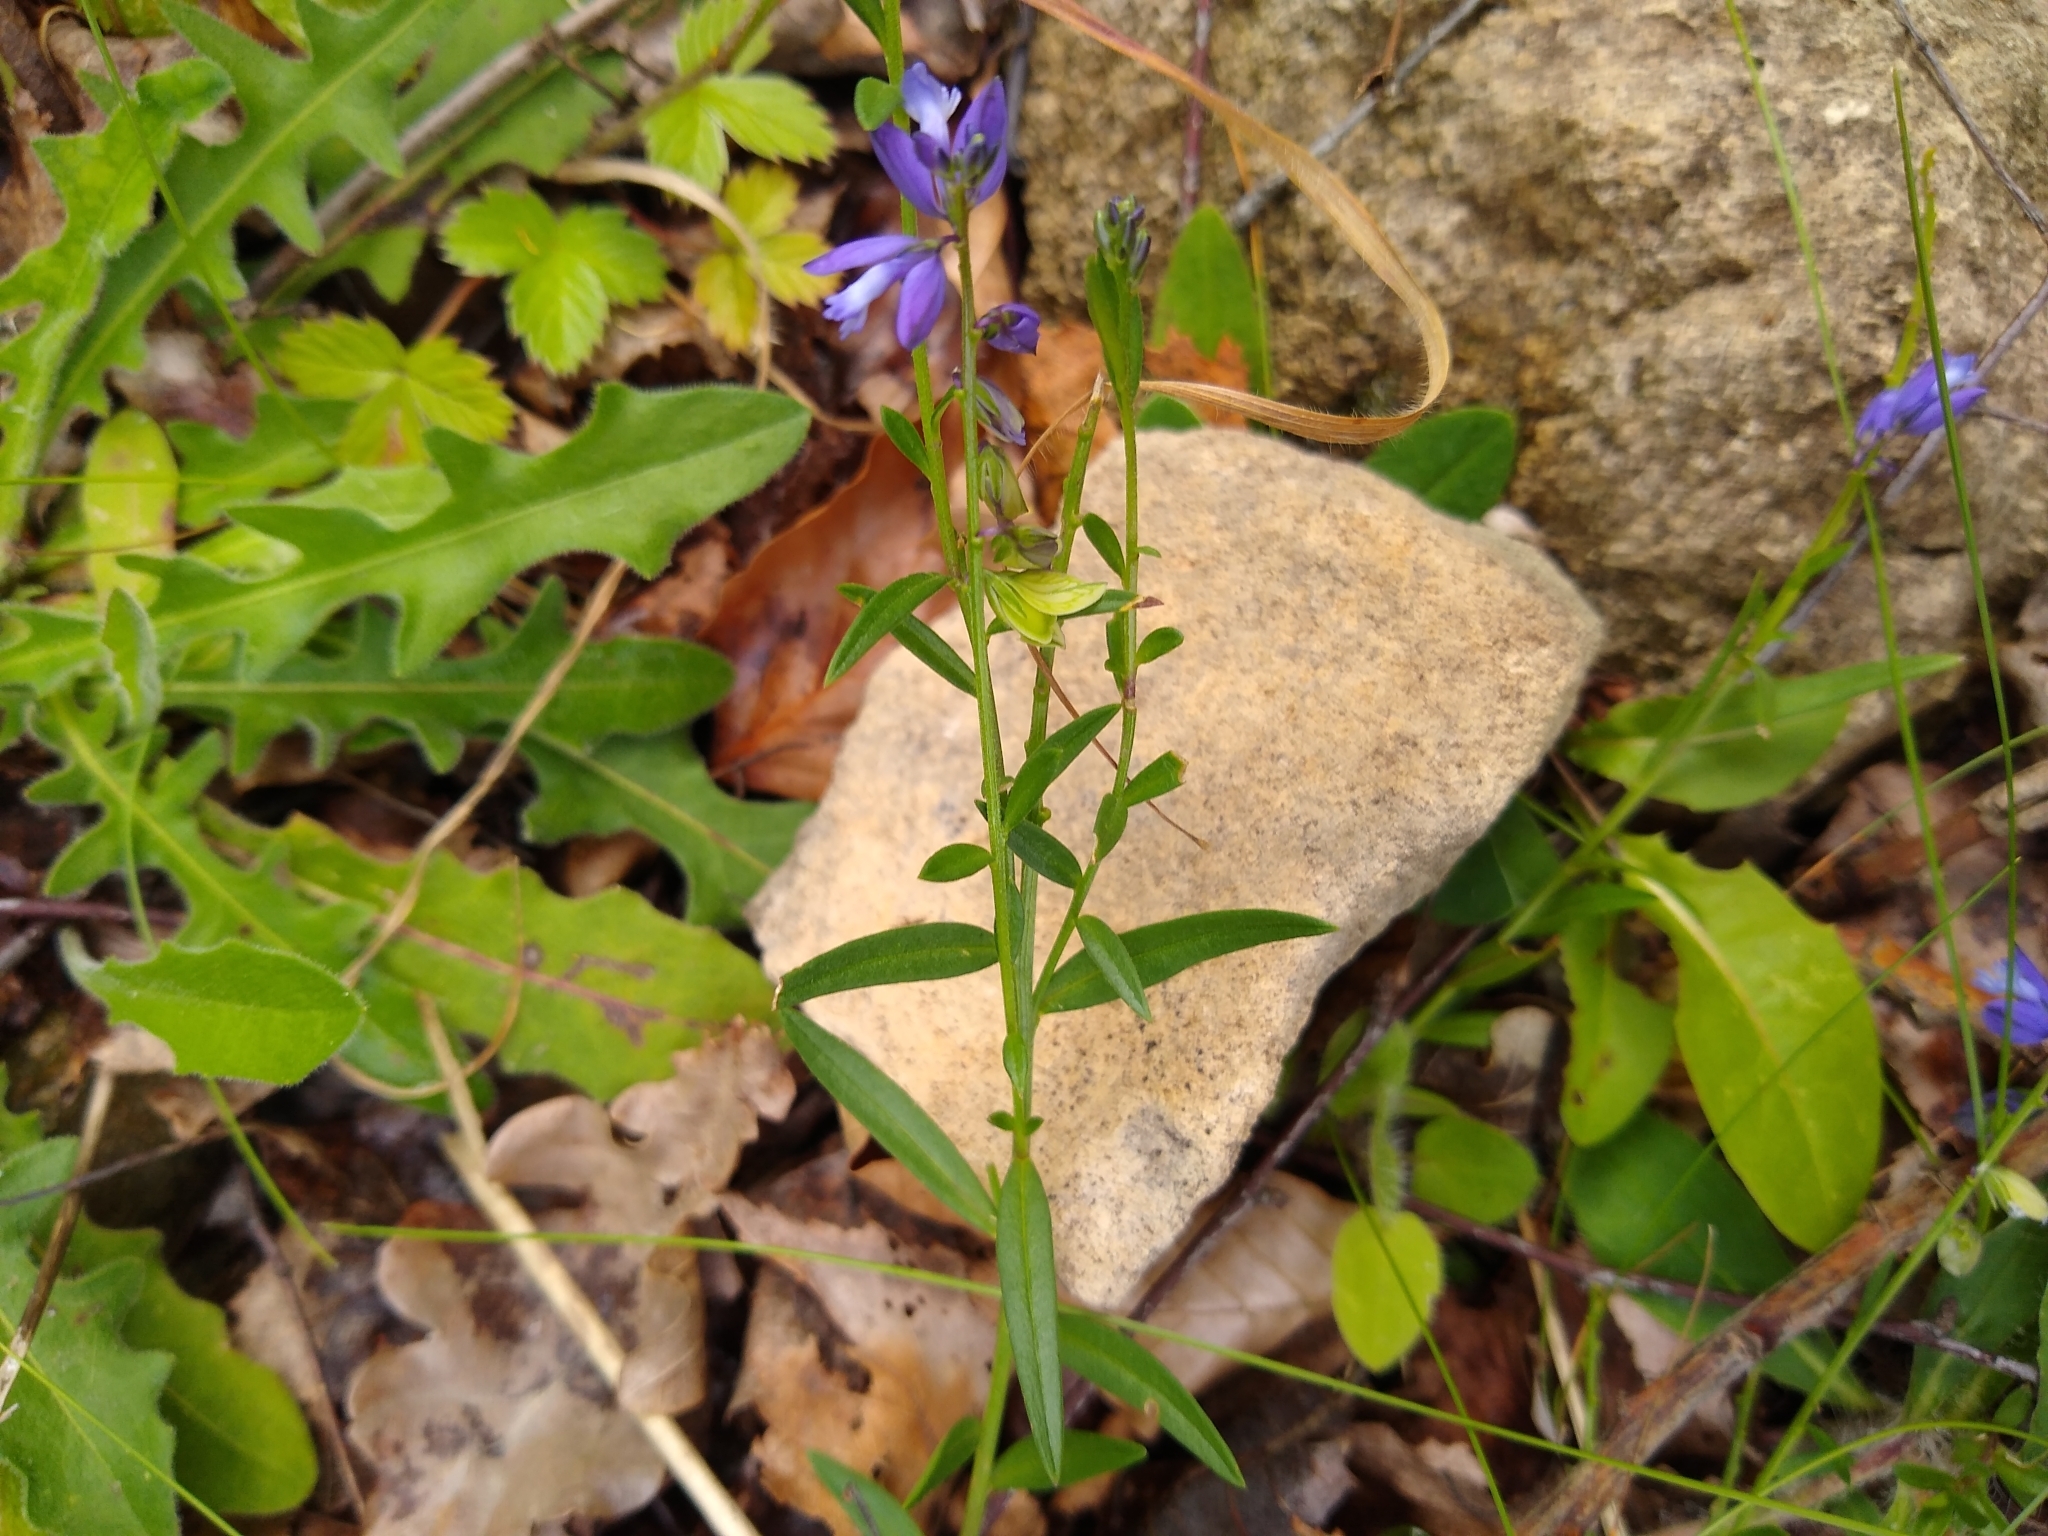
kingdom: Plantae
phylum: Tracheophyta
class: Magnoliopsida
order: Fabales
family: Polygalaceae
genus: Polygala
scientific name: Polygala vulgaris
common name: Common milkwort
